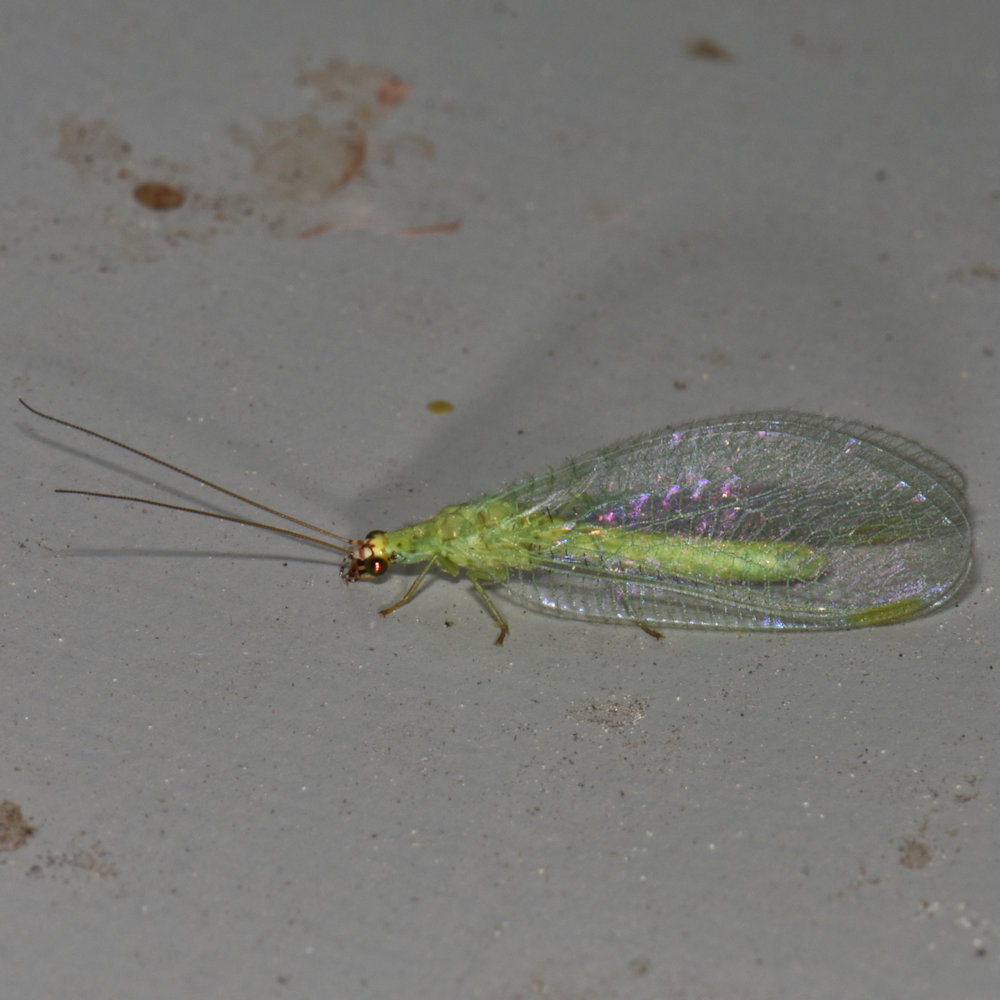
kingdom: Animalia
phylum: Arthropoda
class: Insecta
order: Neuroptera
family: Chrysopidae
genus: Chrysopa
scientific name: Chrysopa oculata
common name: Golden-eyed lacewing
